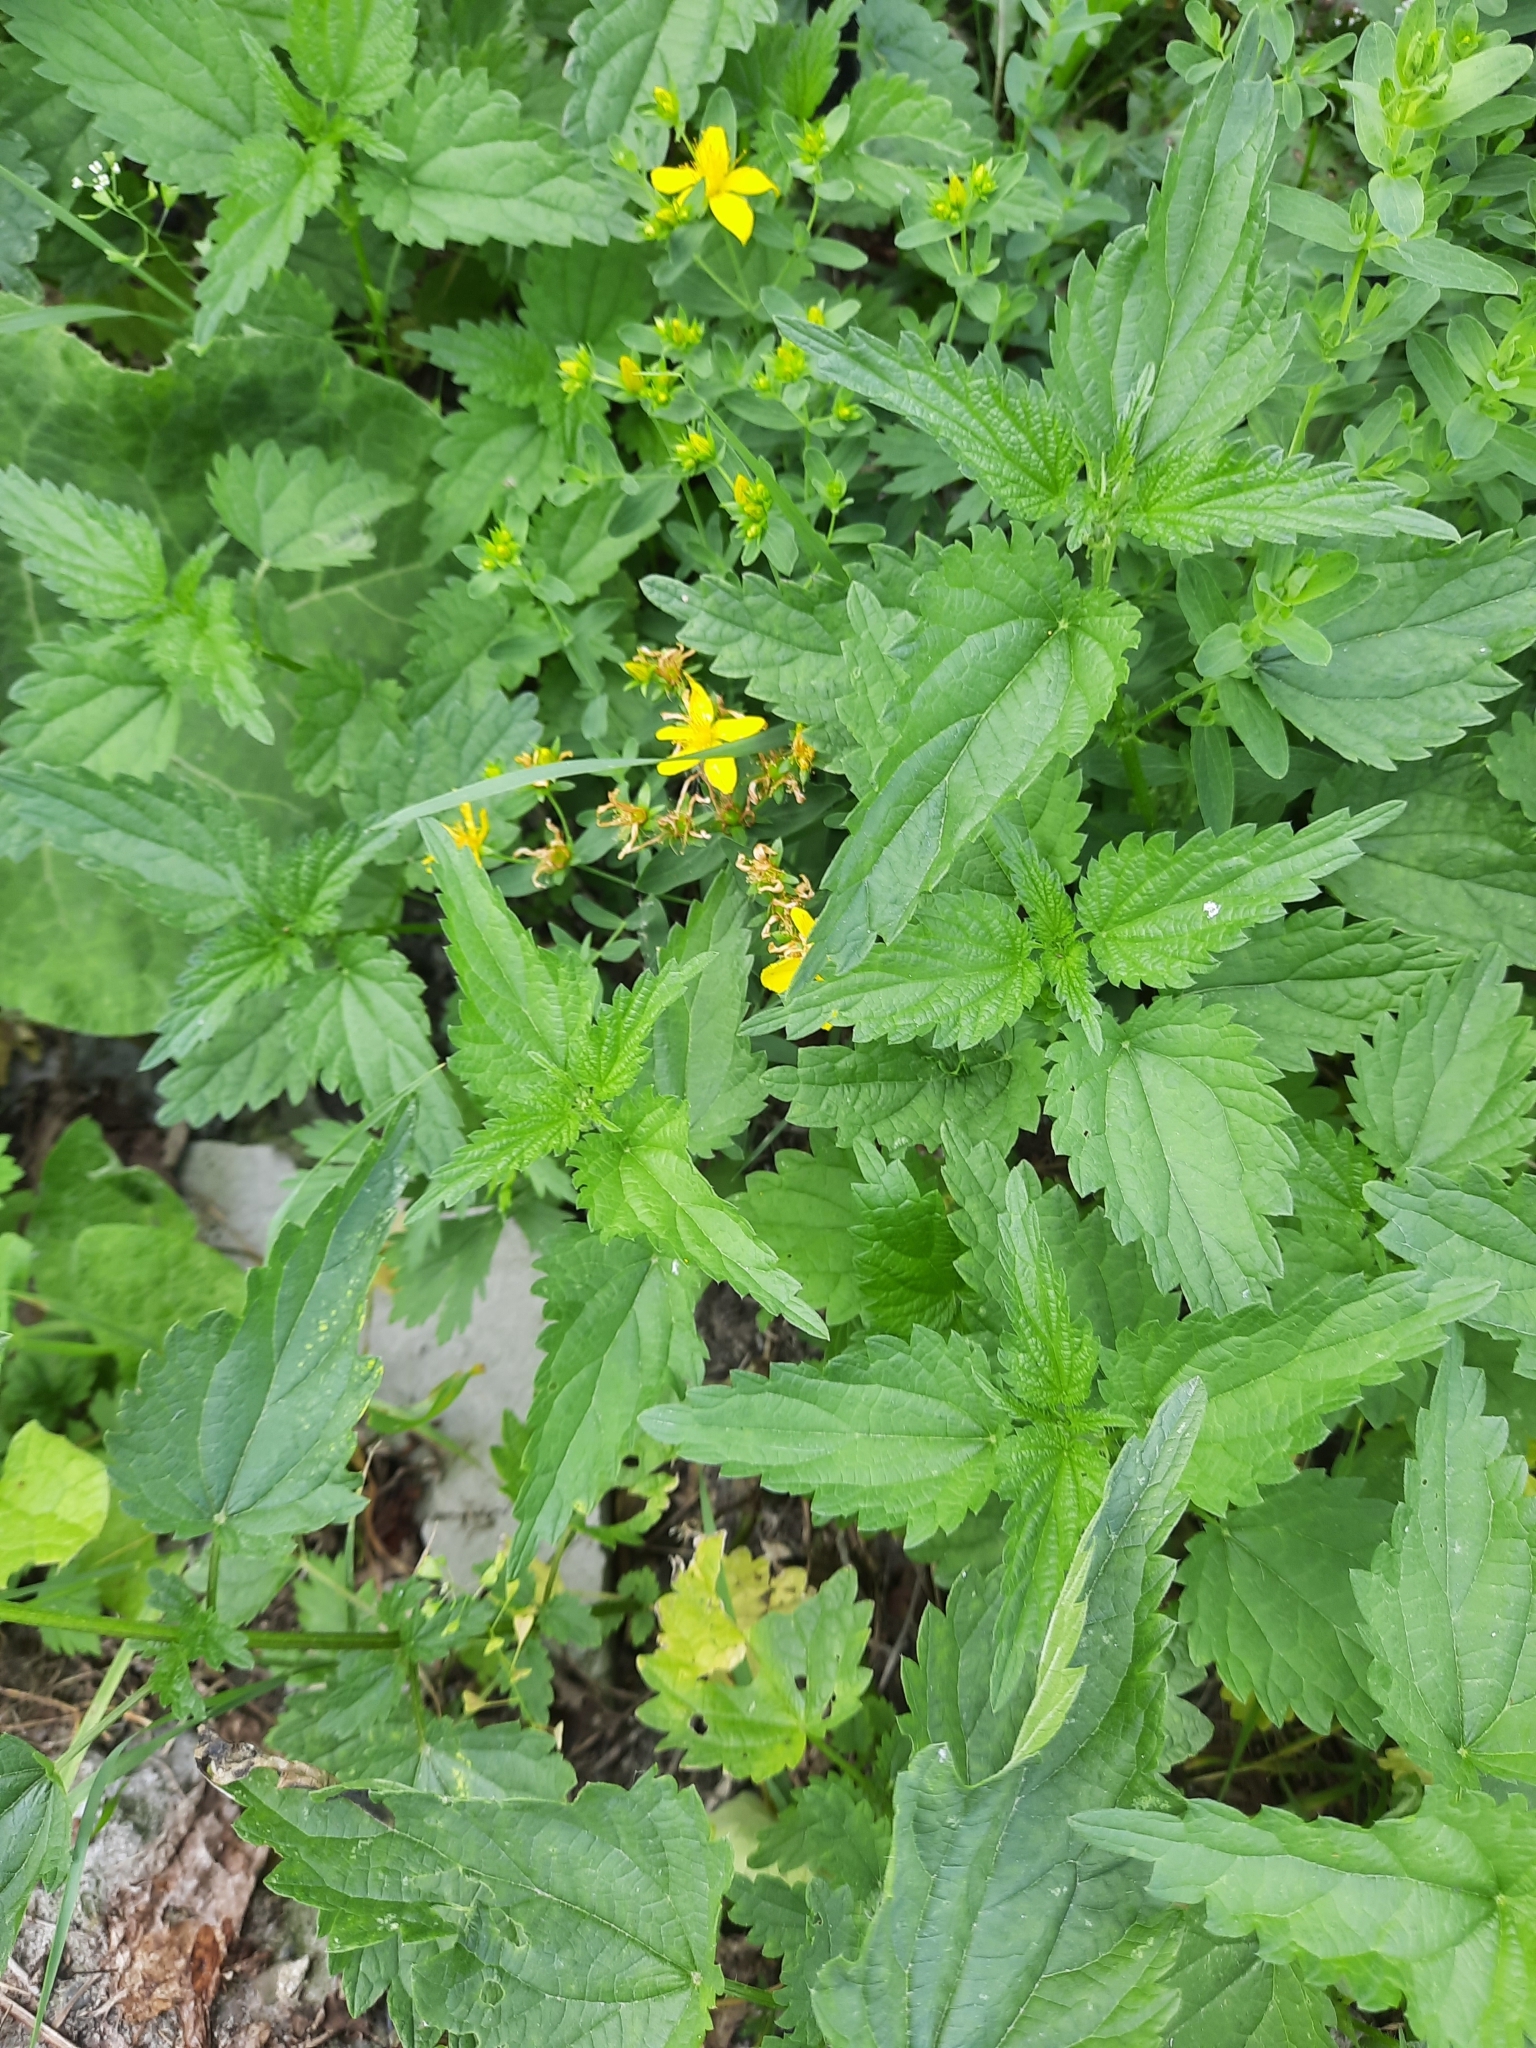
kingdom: Plantae
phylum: Tracheophyta
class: Magnoliopsida
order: Rosales
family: Urticaceae
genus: Urtica
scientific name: Urtica dioica
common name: Common nettle
